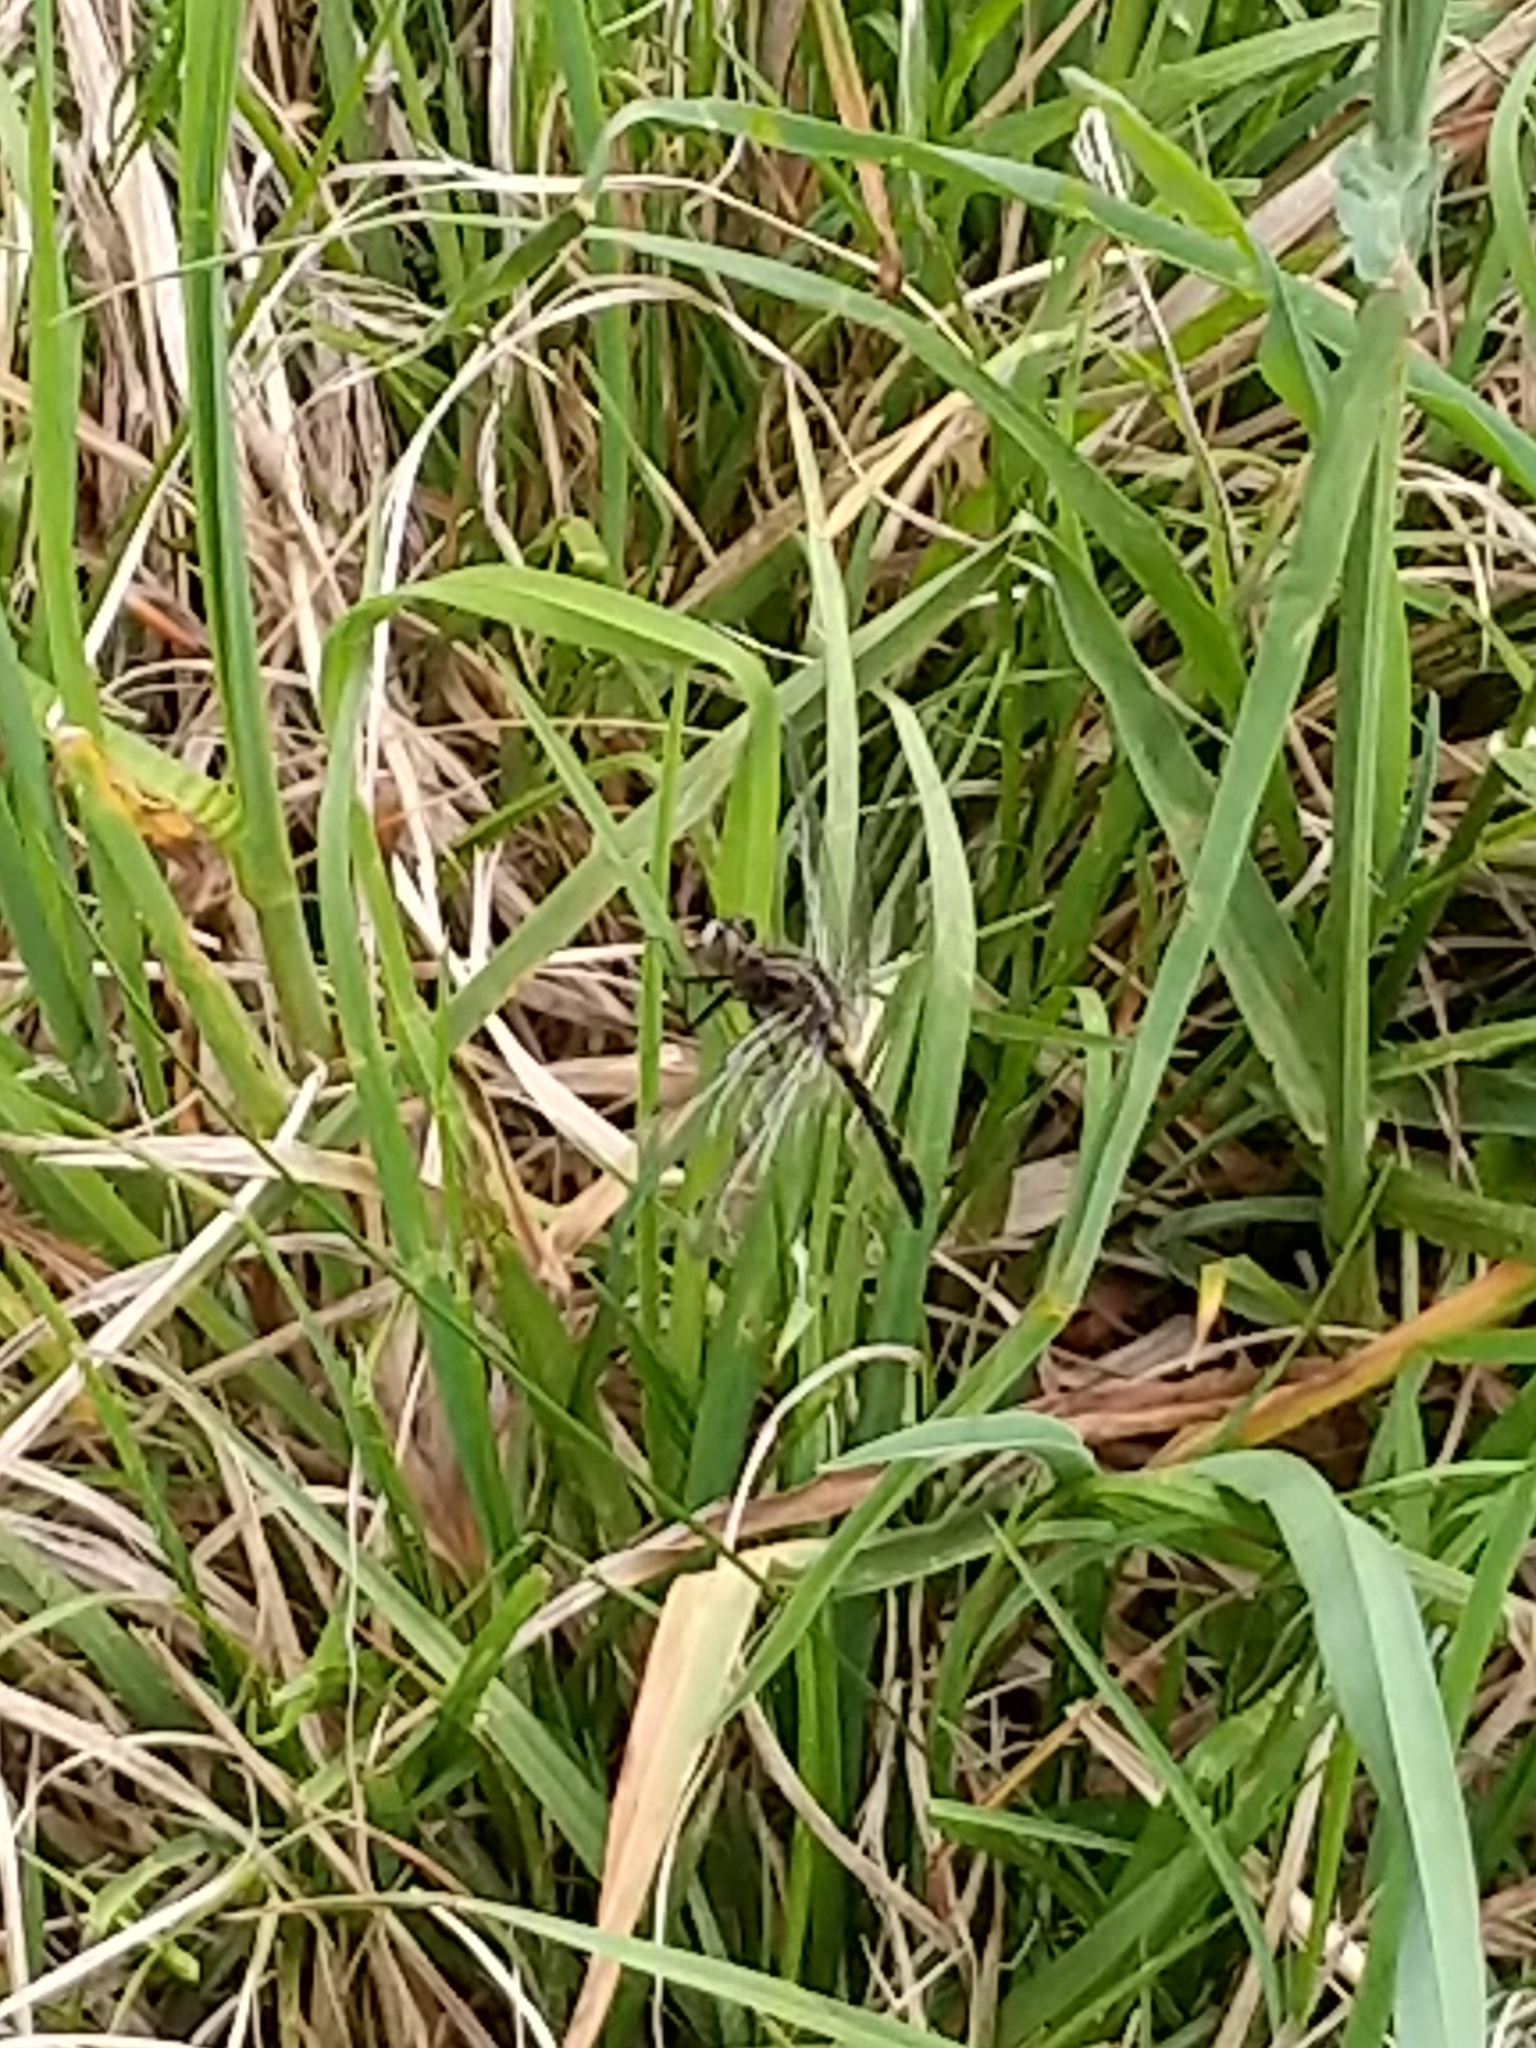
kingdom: Animalia
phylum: Arthropoda
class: Insecta
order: Odonata
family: Libellulidae
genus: Leucorrhinia
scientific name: Leucorrhinia intacta
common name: Dot-tailed whiteface
